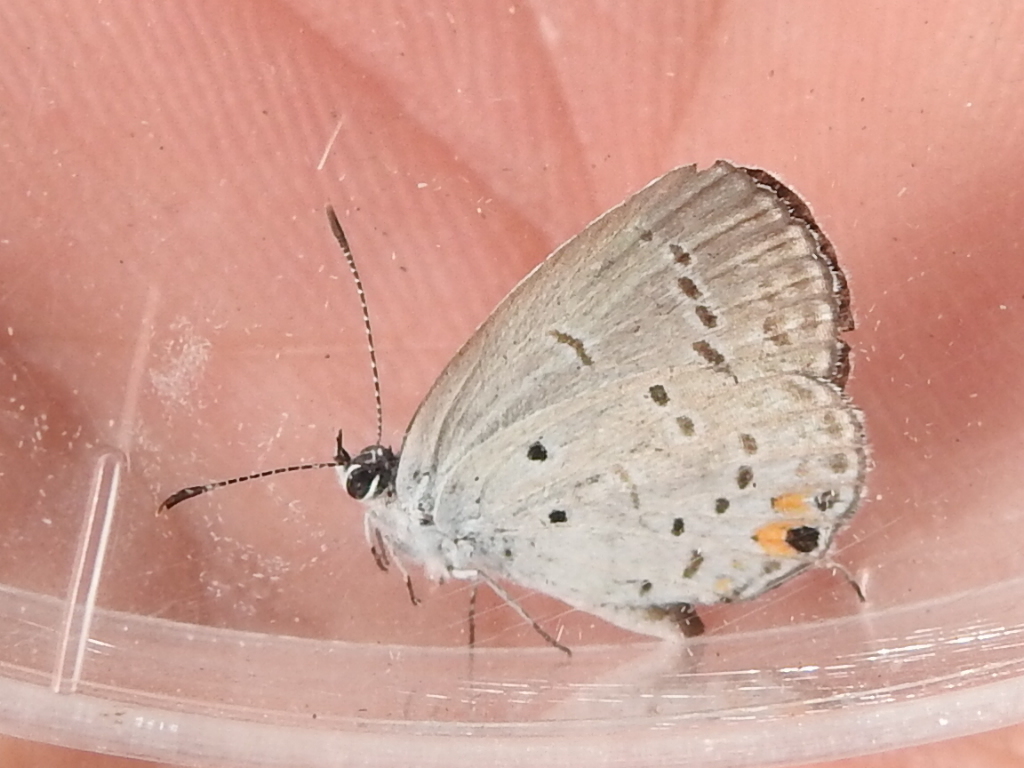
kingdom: Animalia
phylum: Arthropoda
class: Insecta
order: Lepidoptera
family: Lycaenidae
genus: Elkalyce
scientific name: Elkalyce comyntas
